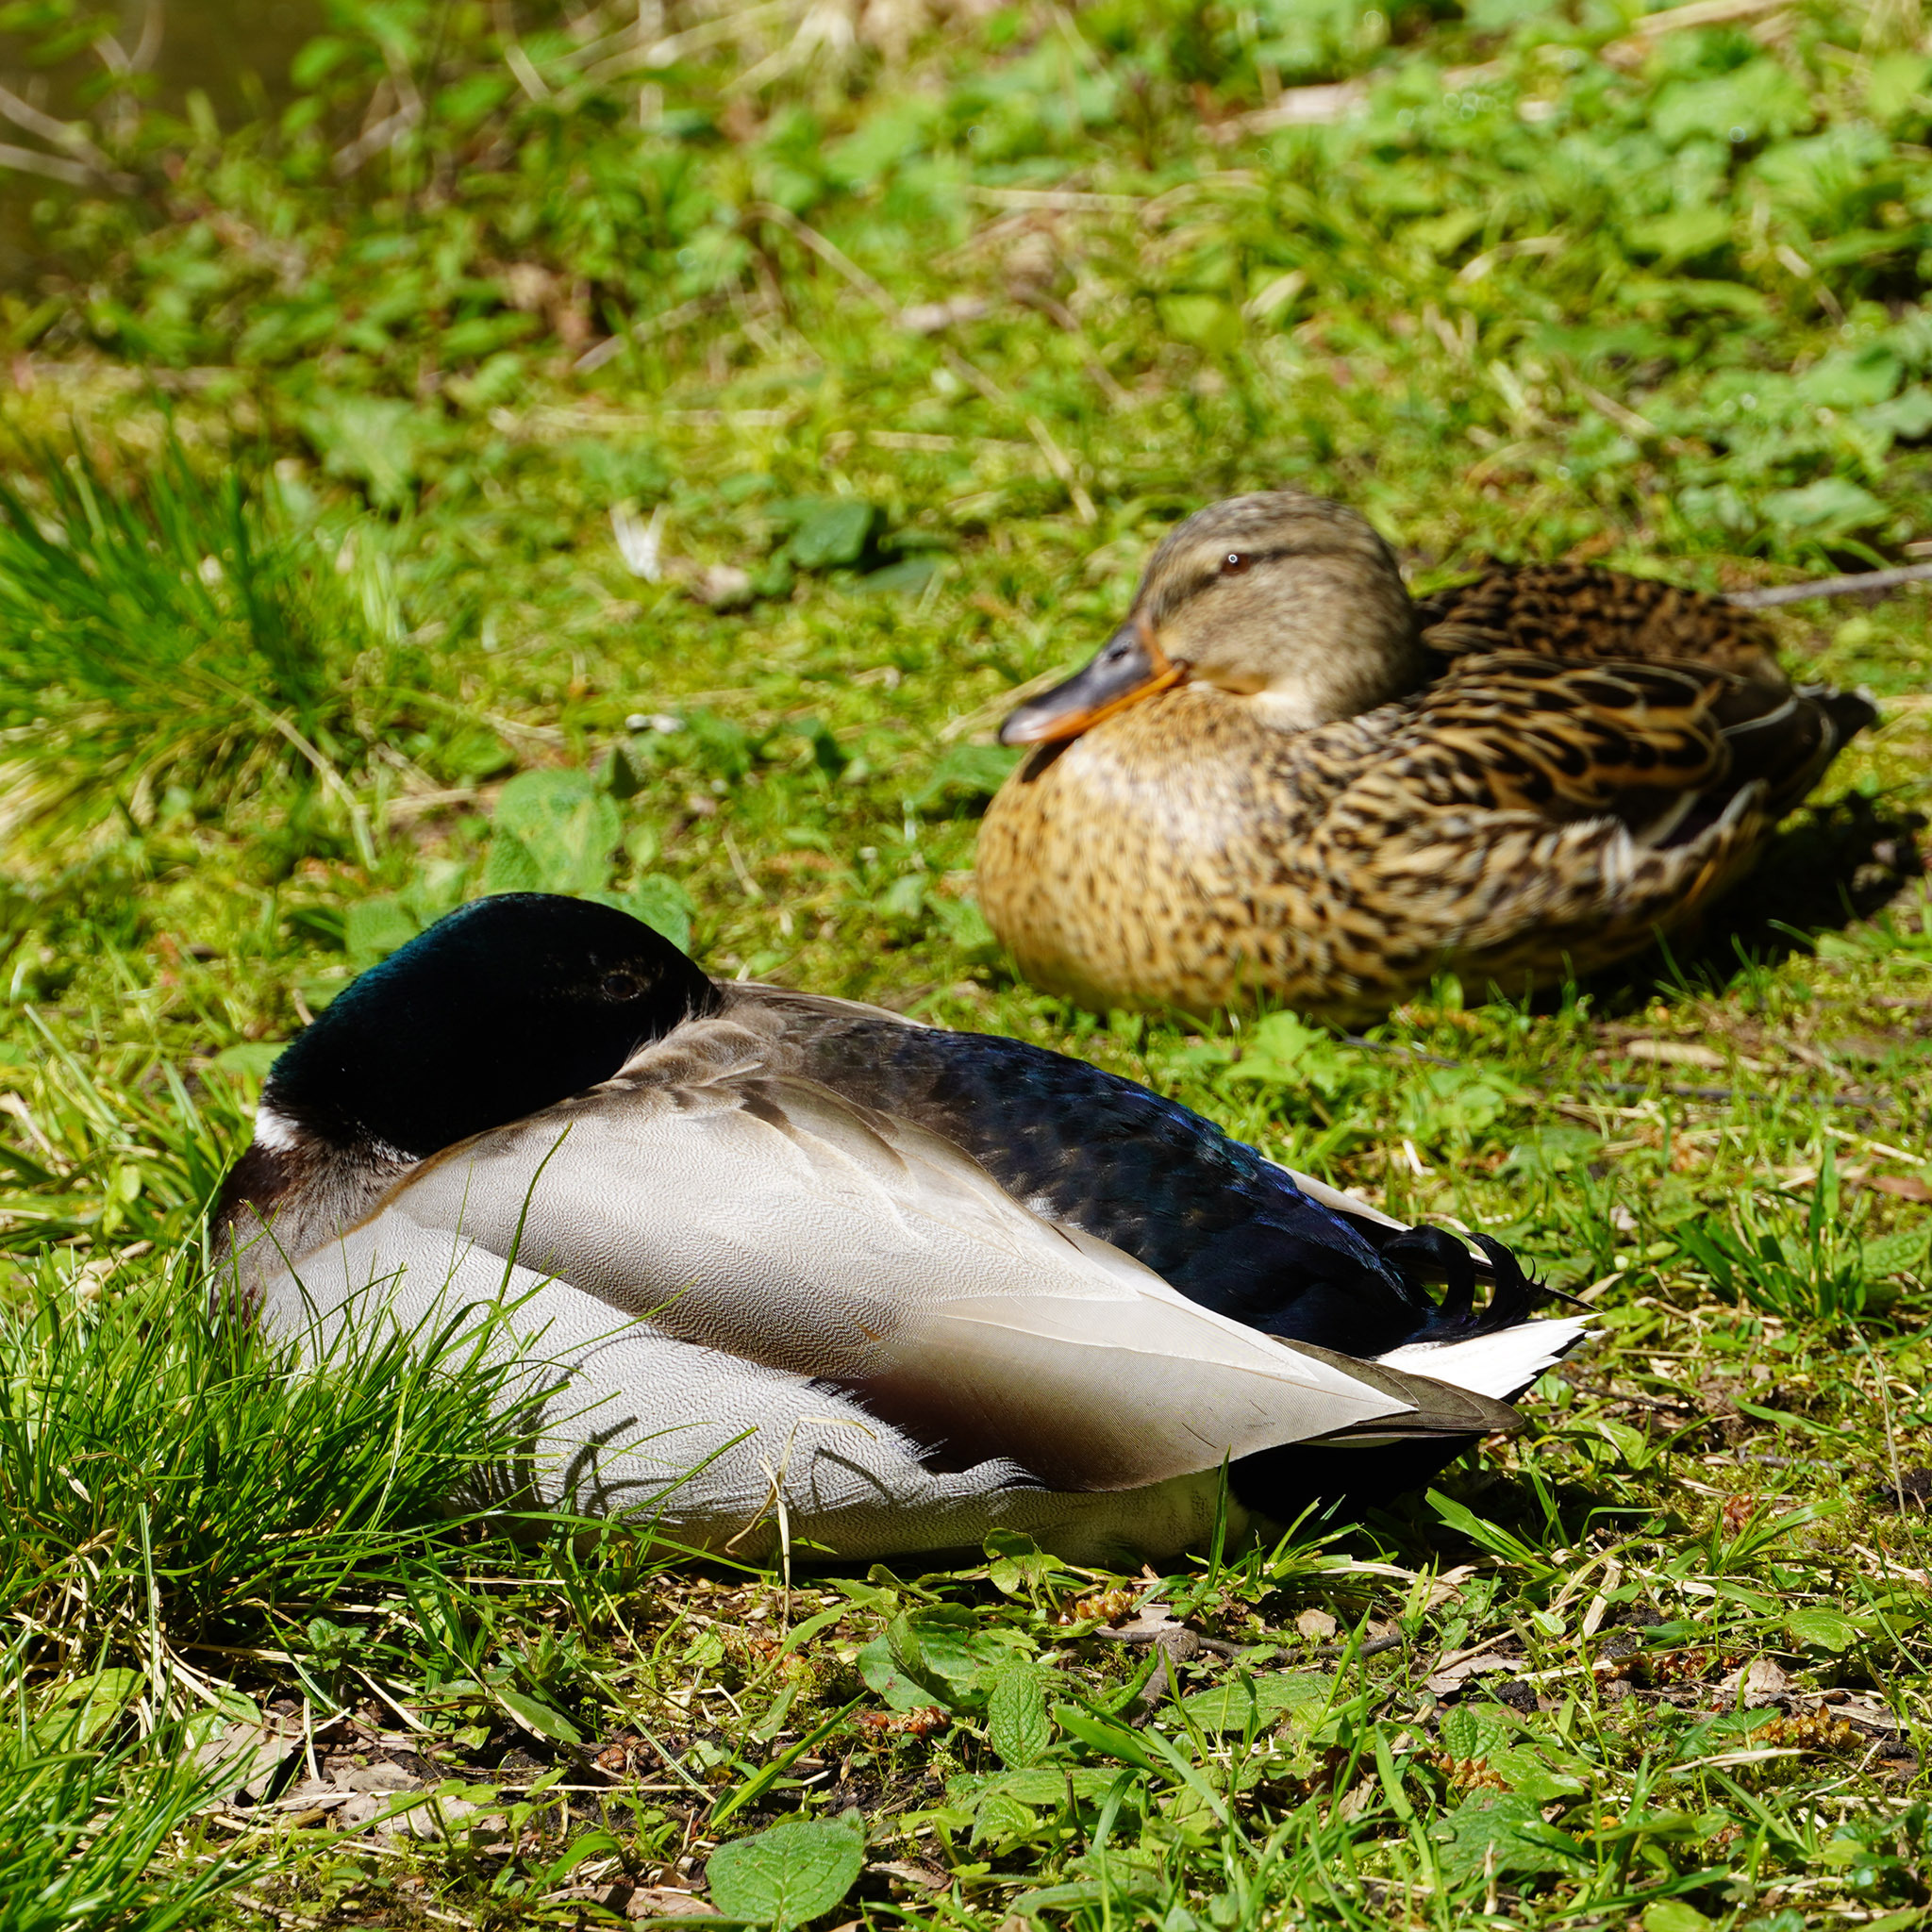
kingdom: Animalia
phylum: Chordata
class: Aves
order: Anseriformes
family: Anatidae
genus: Anas
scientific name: Anas platyrhynchos
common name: Mallard
